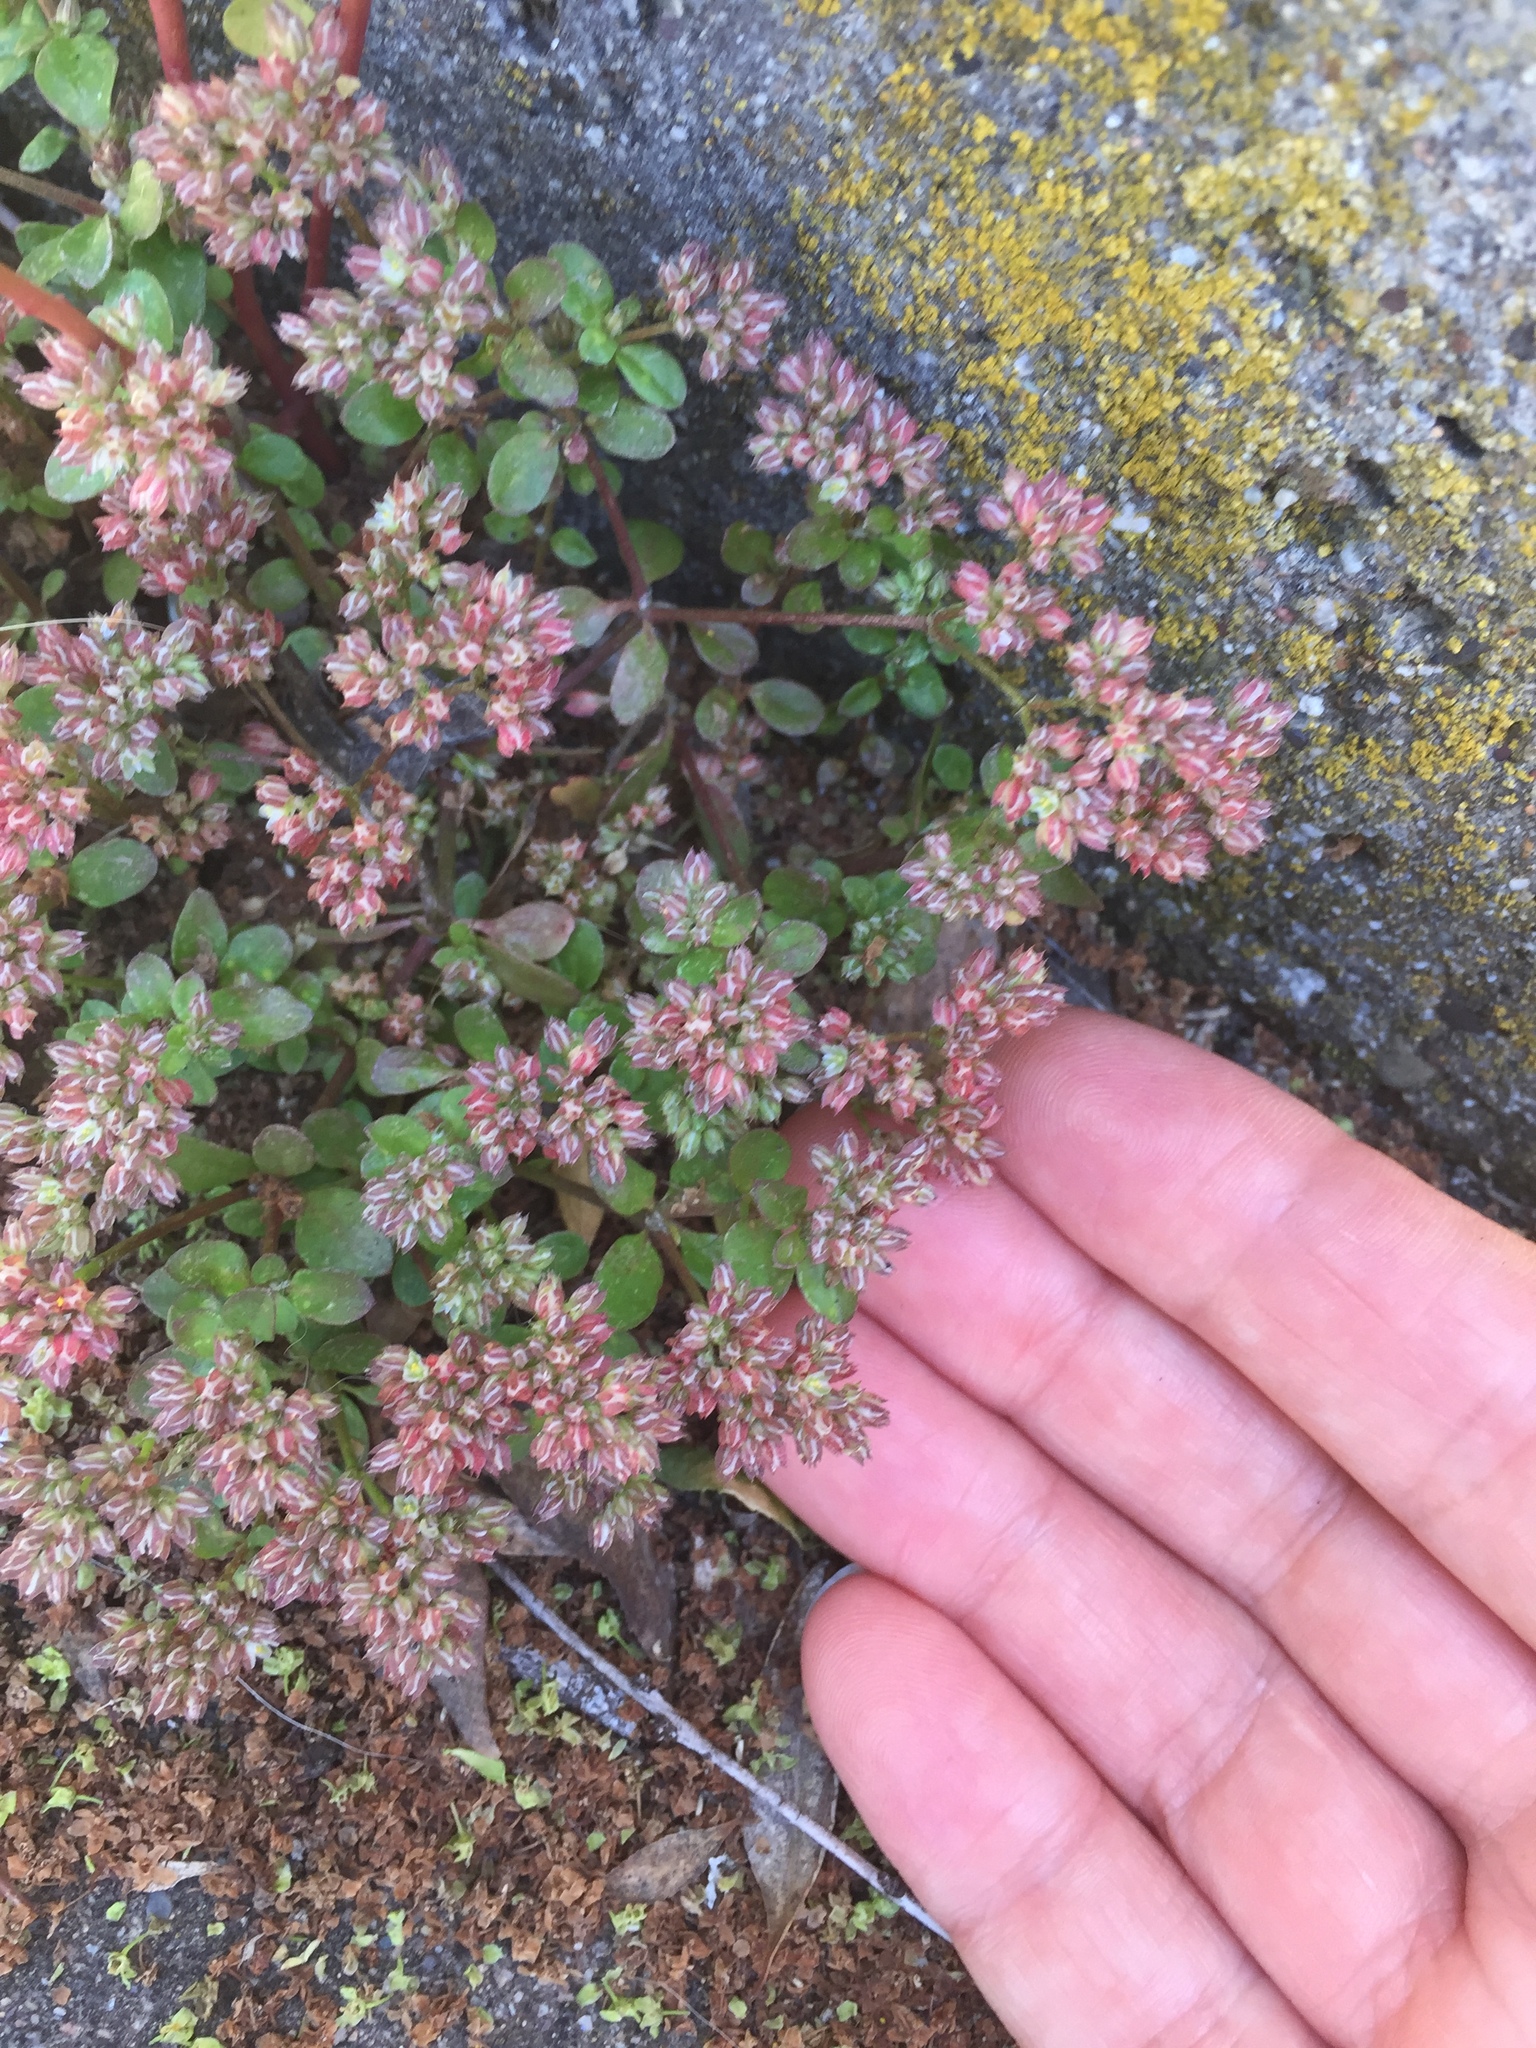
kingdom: Plantae
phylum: Tracheophyta
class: Magnoliopsida
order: Caryophyllales
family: Caryophyllaceae
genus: Polycarpon
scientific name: Polycarpon tetraphyllum
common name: Four-leaved all-seed
